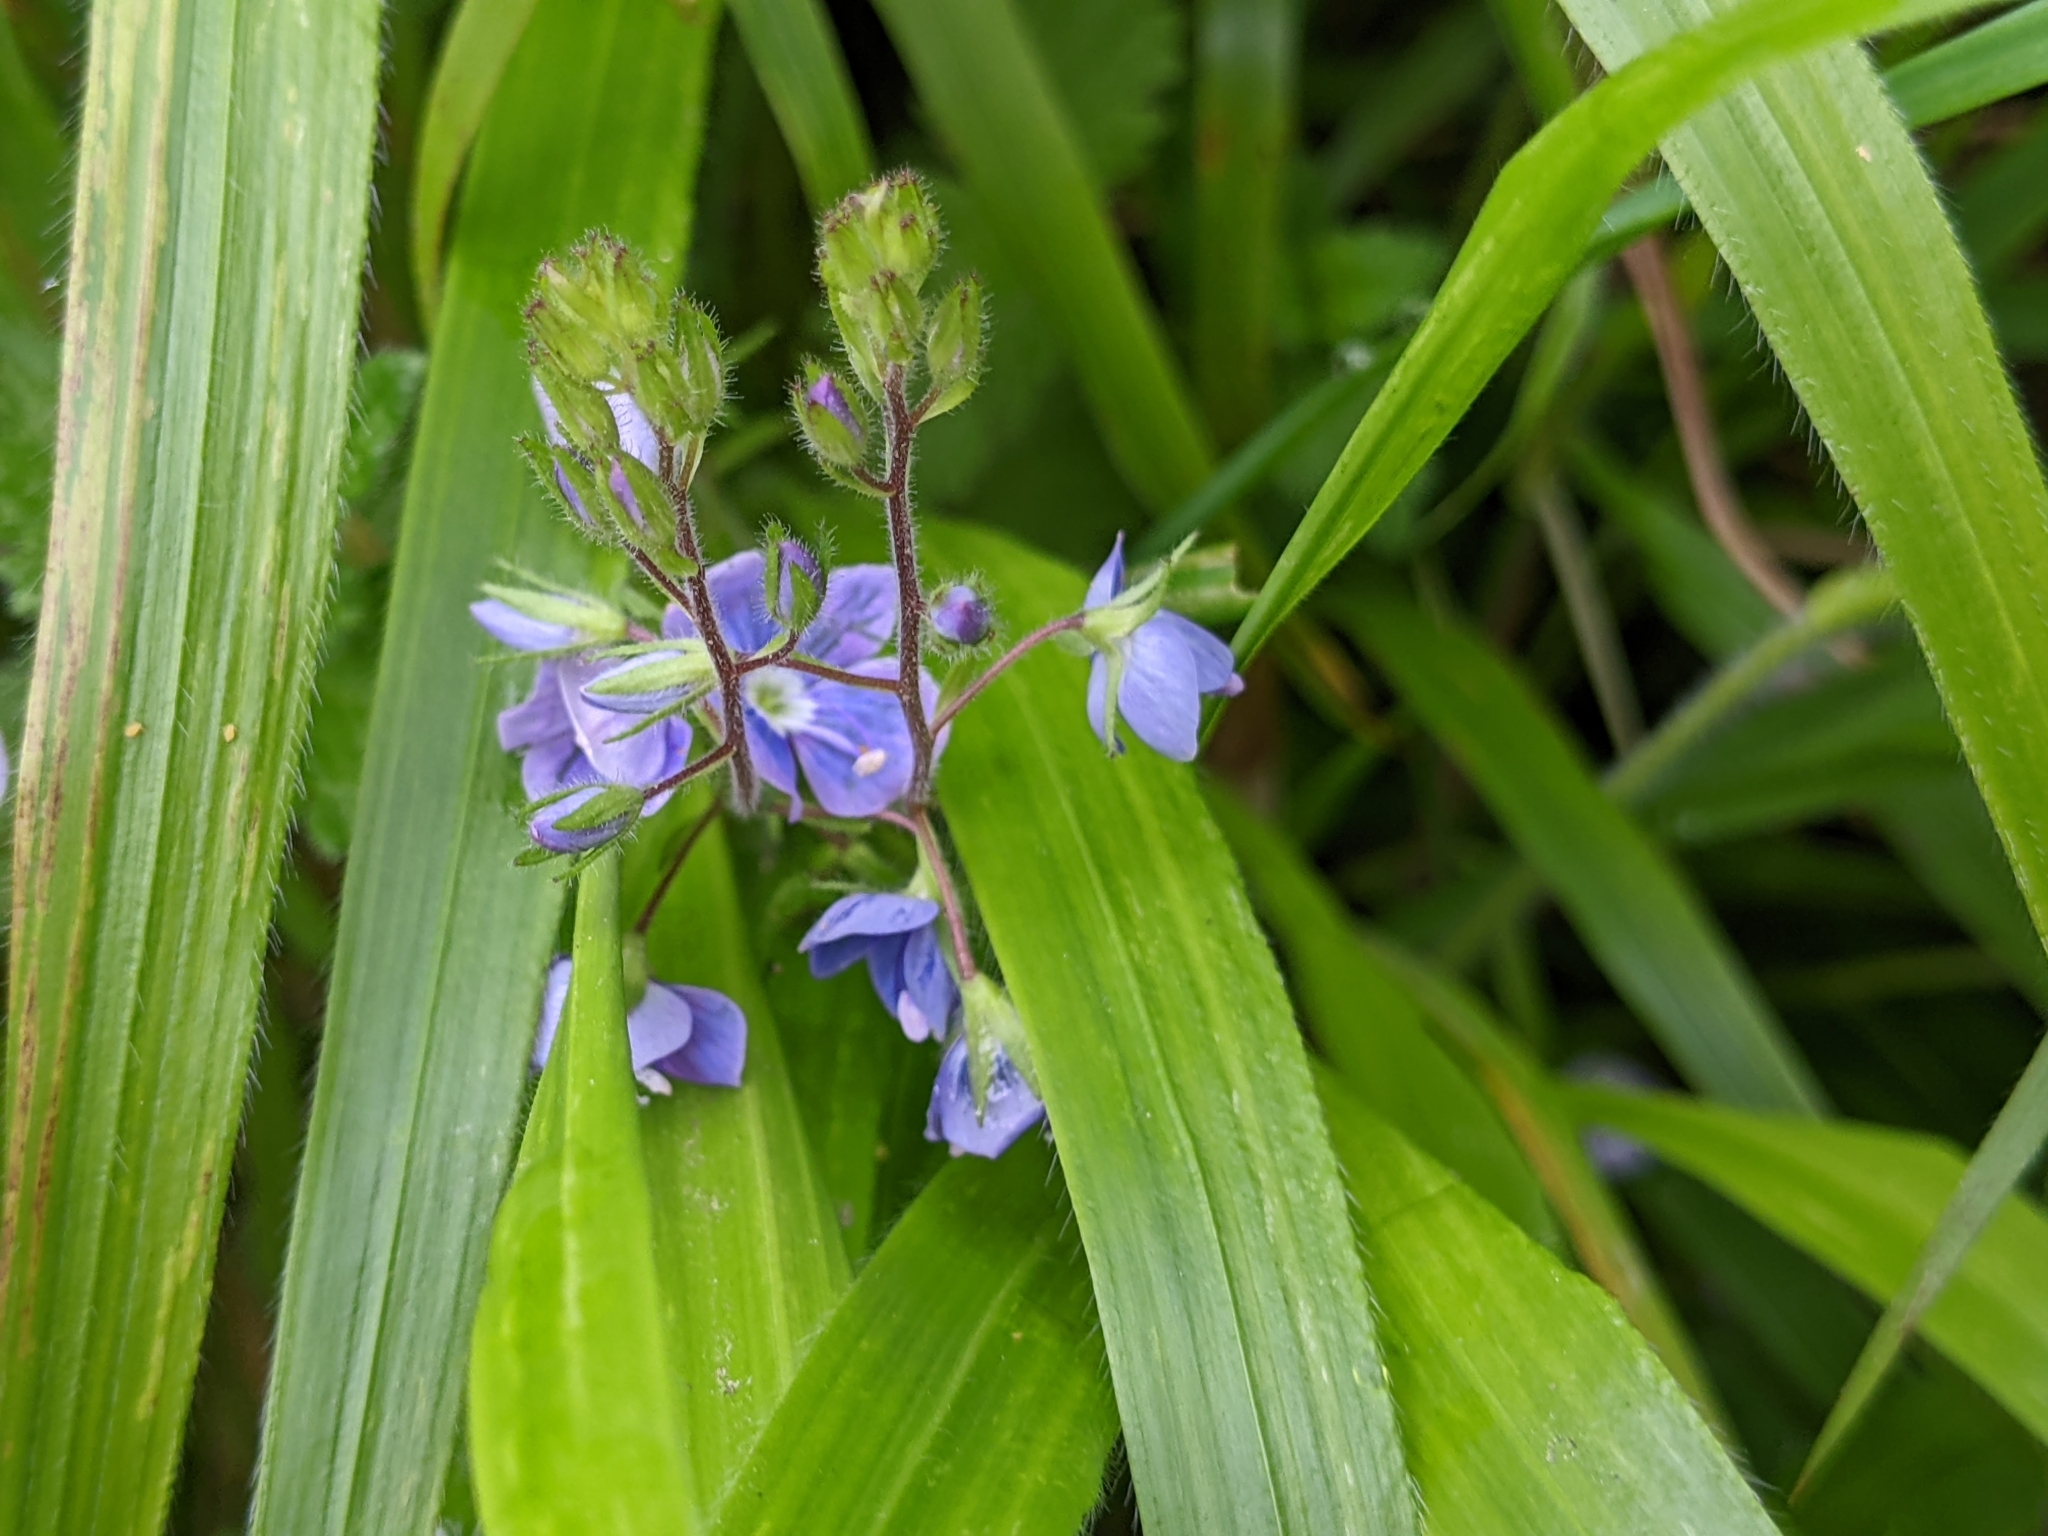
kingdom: Plantae
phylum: Tracheophyta
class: Magnoliopsida
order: Lamiales
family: Plantaginaceae
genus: Veronica
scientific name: Veronica chamaedrys
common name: Germander speedwell
